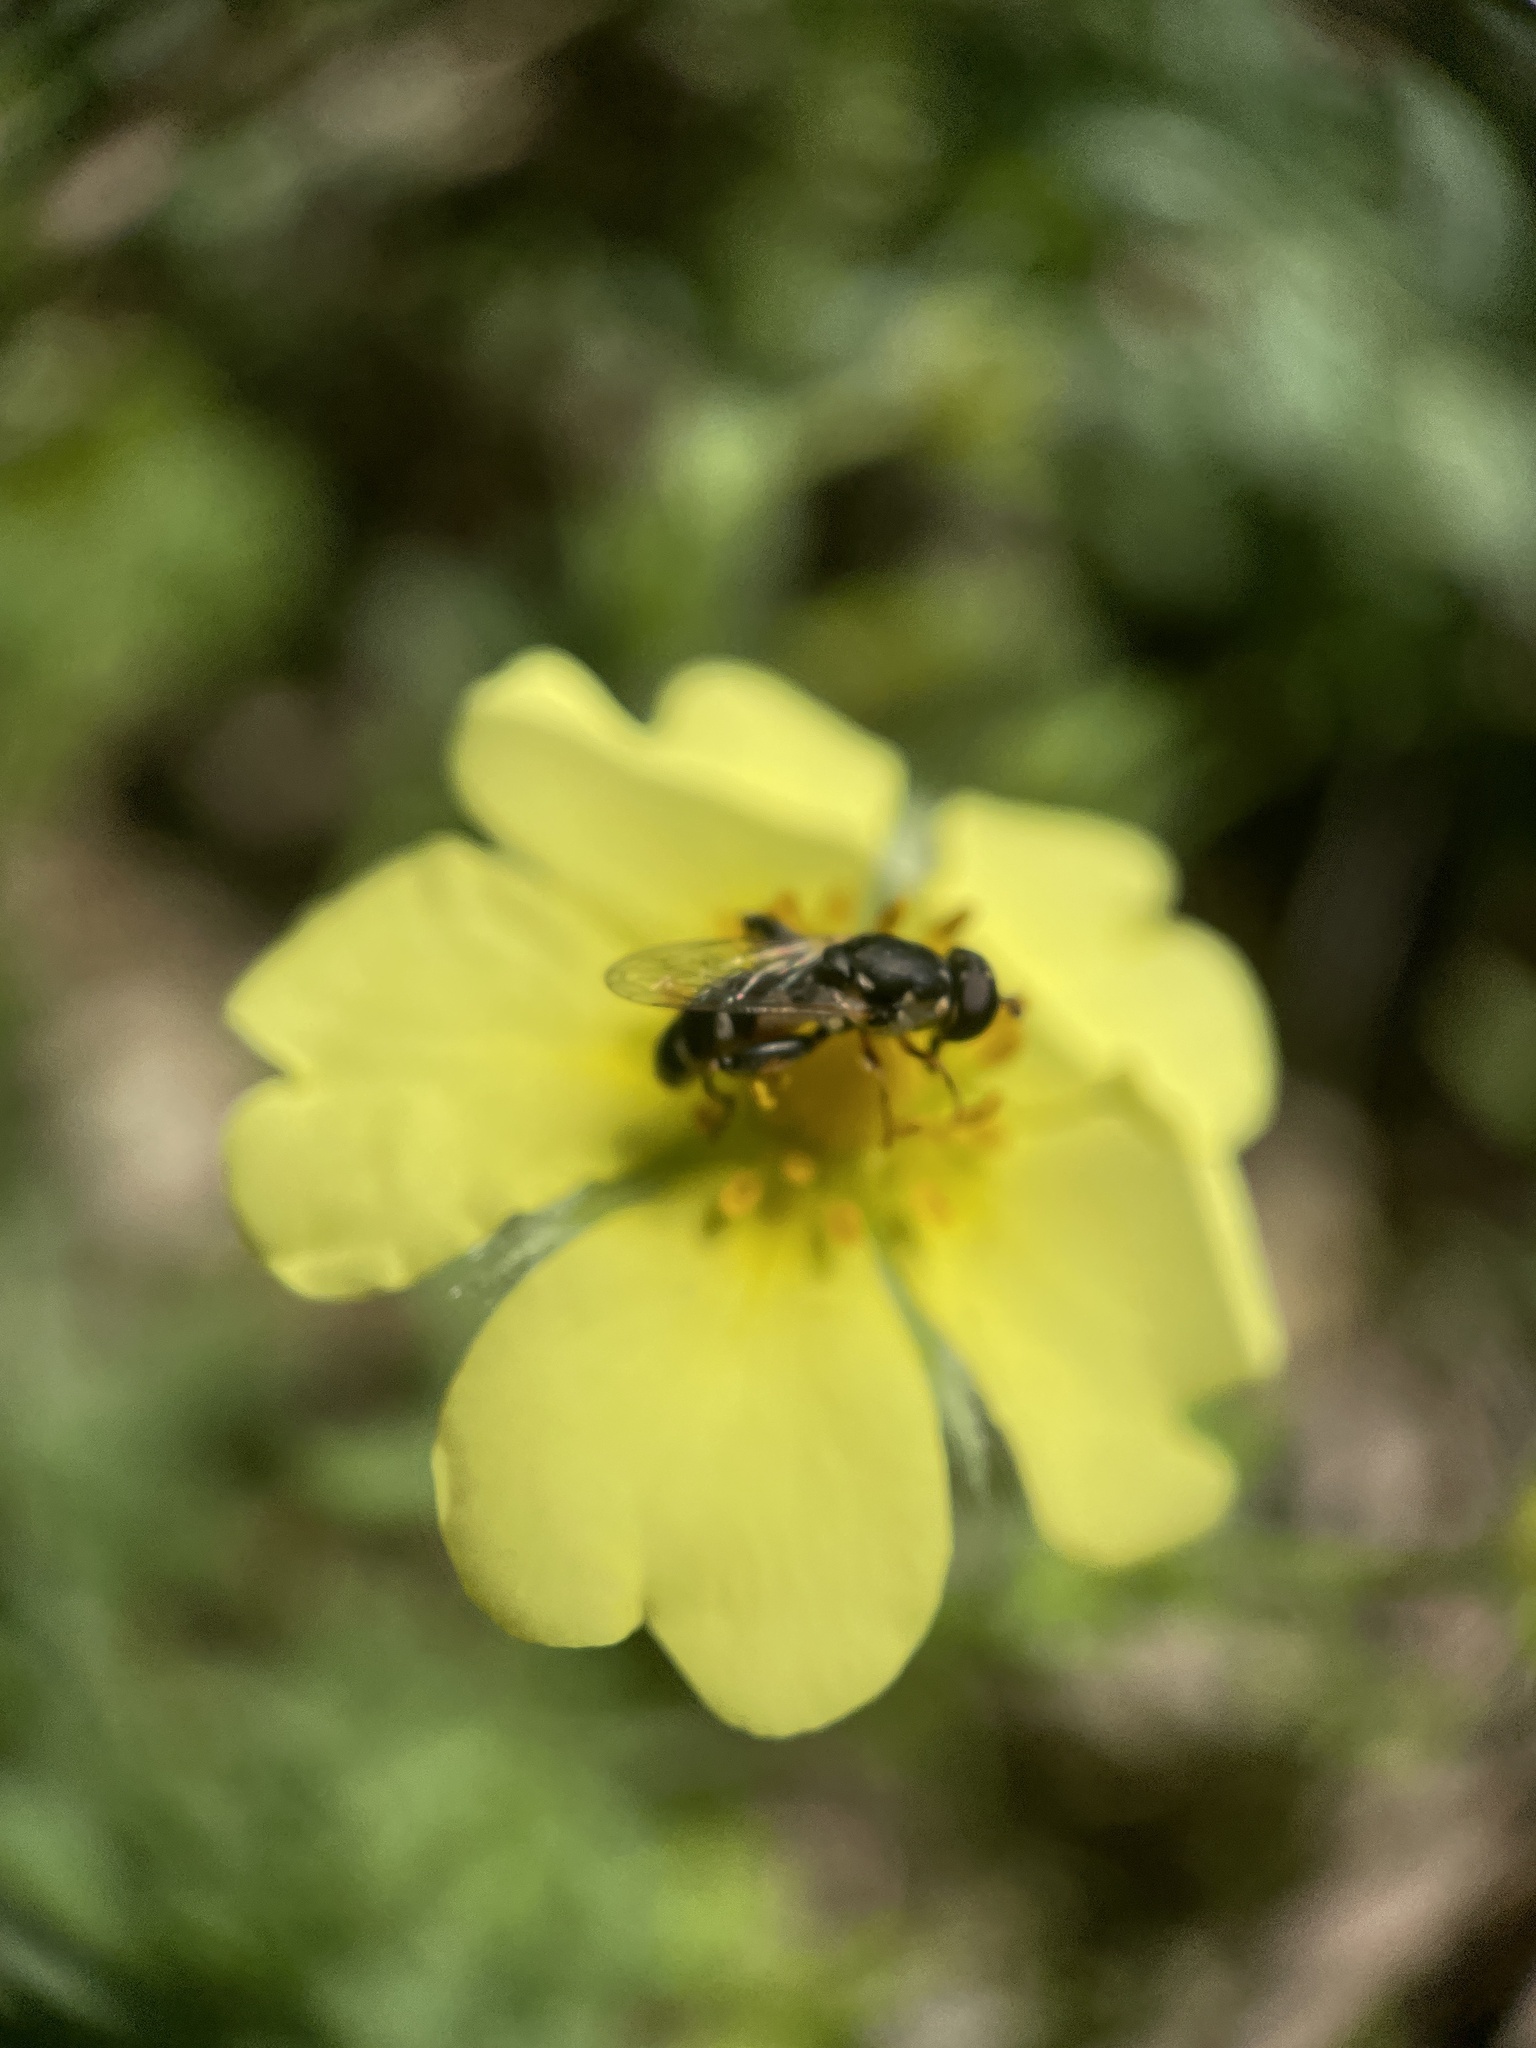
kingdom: Animalia
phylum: Arthropoda
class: Insecta
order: Diptera
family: Syrphidae
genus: Syritta
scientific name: Syritta pipiens
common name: Hover fly
